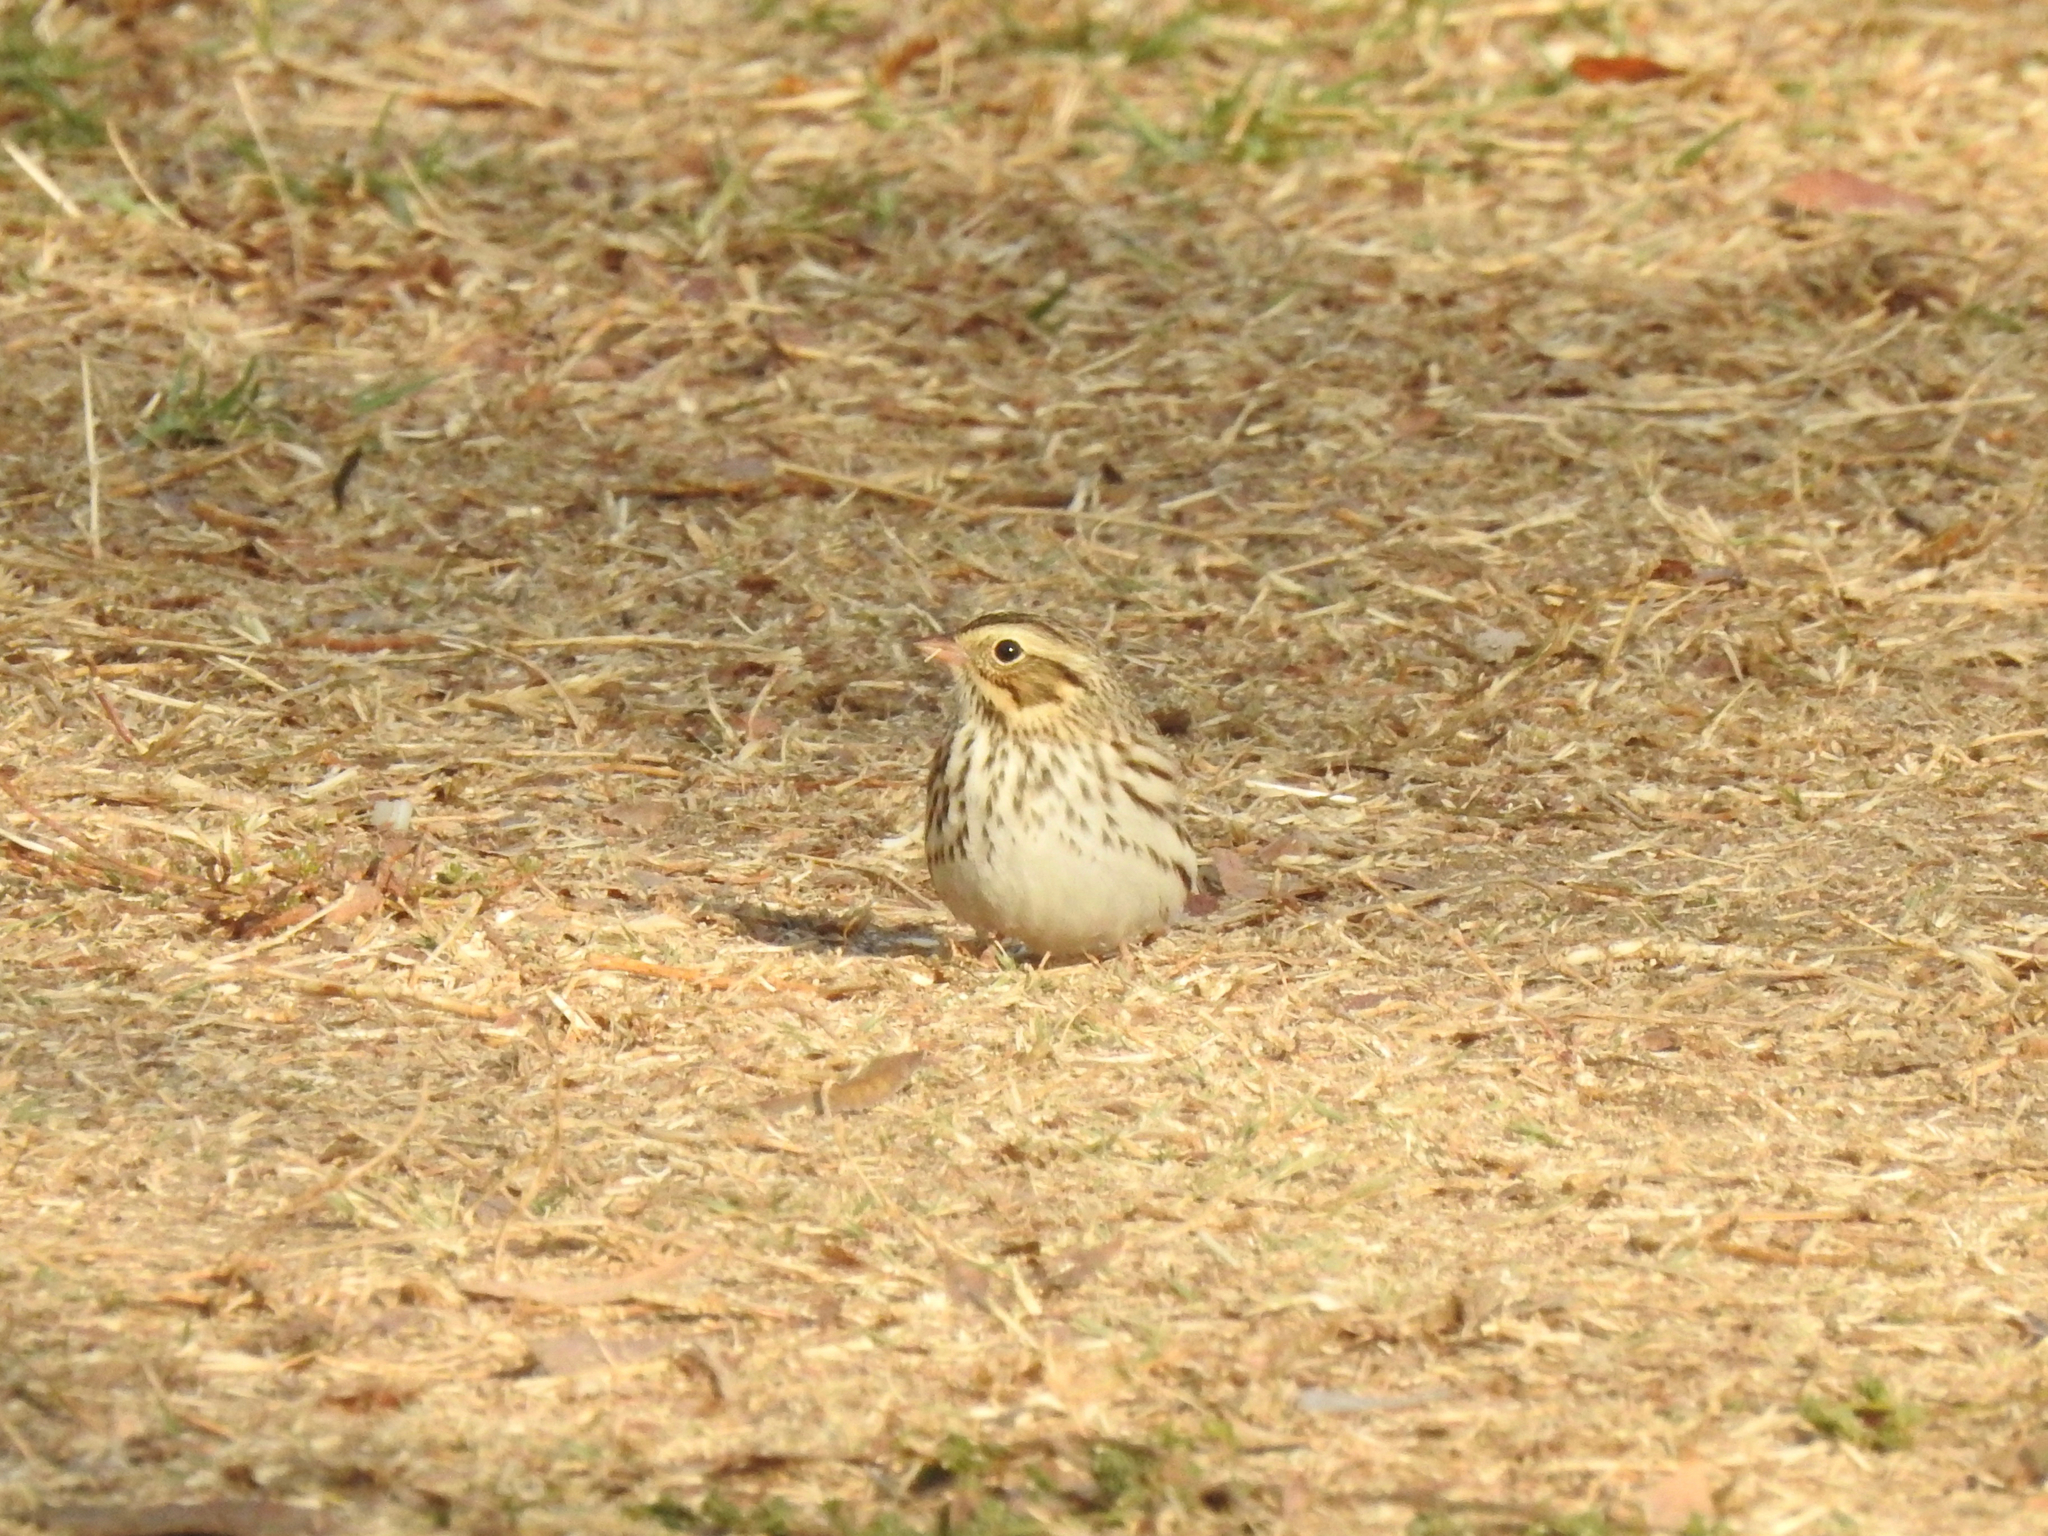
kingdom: Animalia
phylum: Chordata
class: Aves
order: Passeriformes
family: Passerellidae
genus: Passerculus
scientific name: Passerculus sandwichensis
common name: Savannah sparrow
